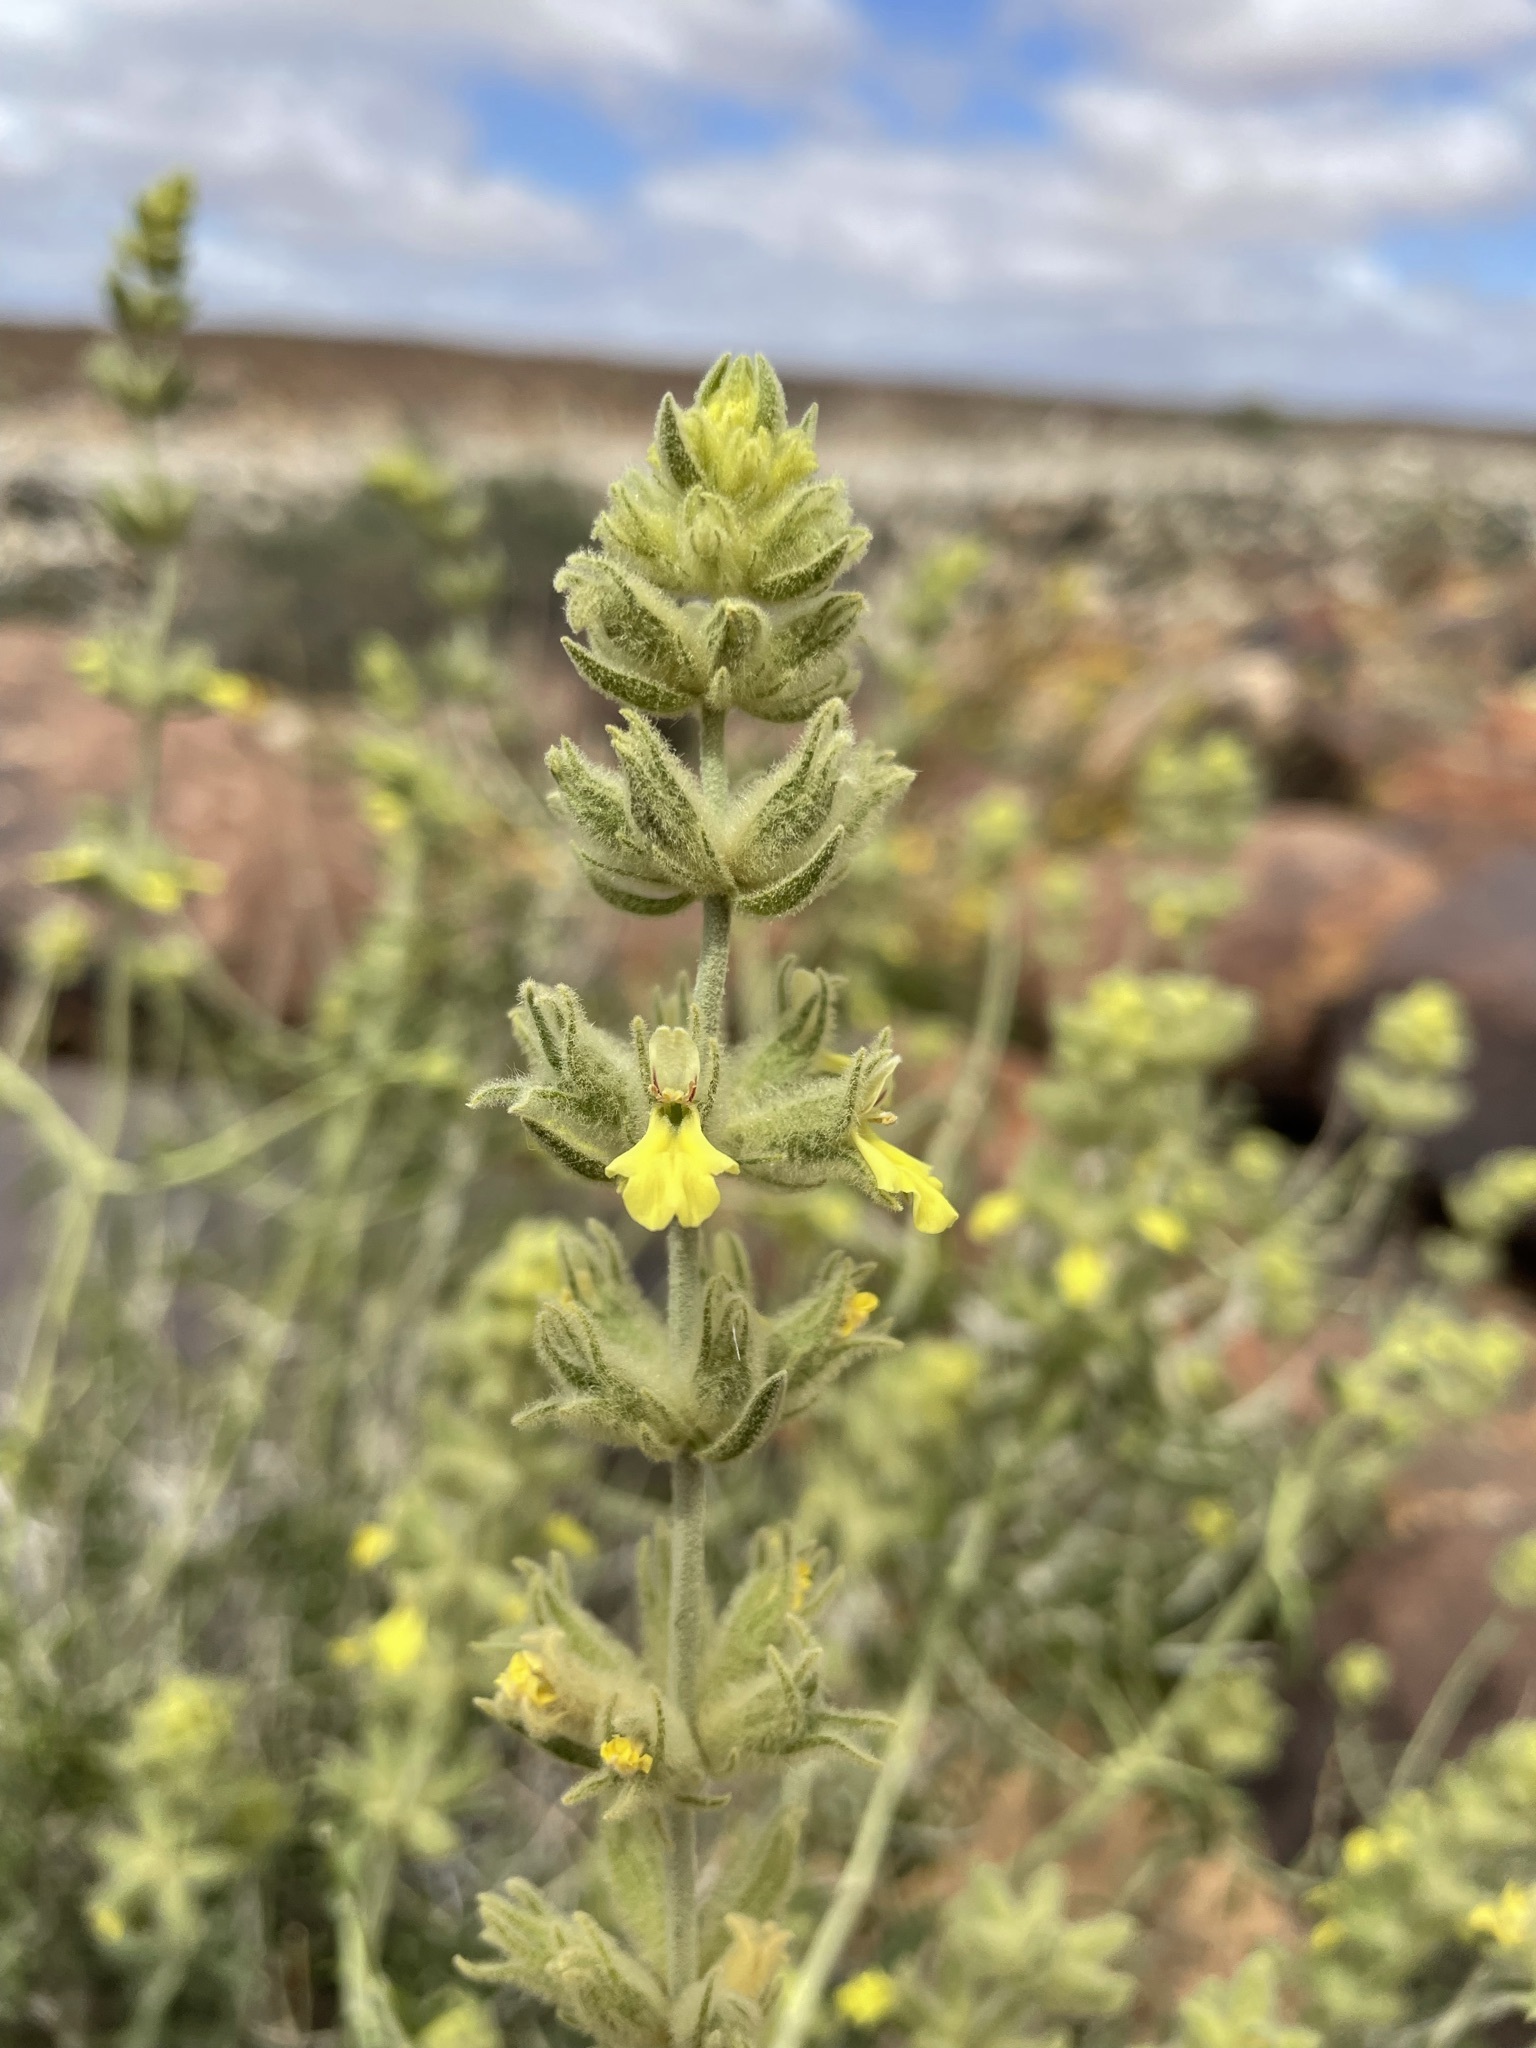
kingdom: Plantae
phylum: Tracheophyta
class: Magnoliopsida
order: Lamiales
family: Lamiaceae
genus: Stachys
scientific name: Stachys aurea
